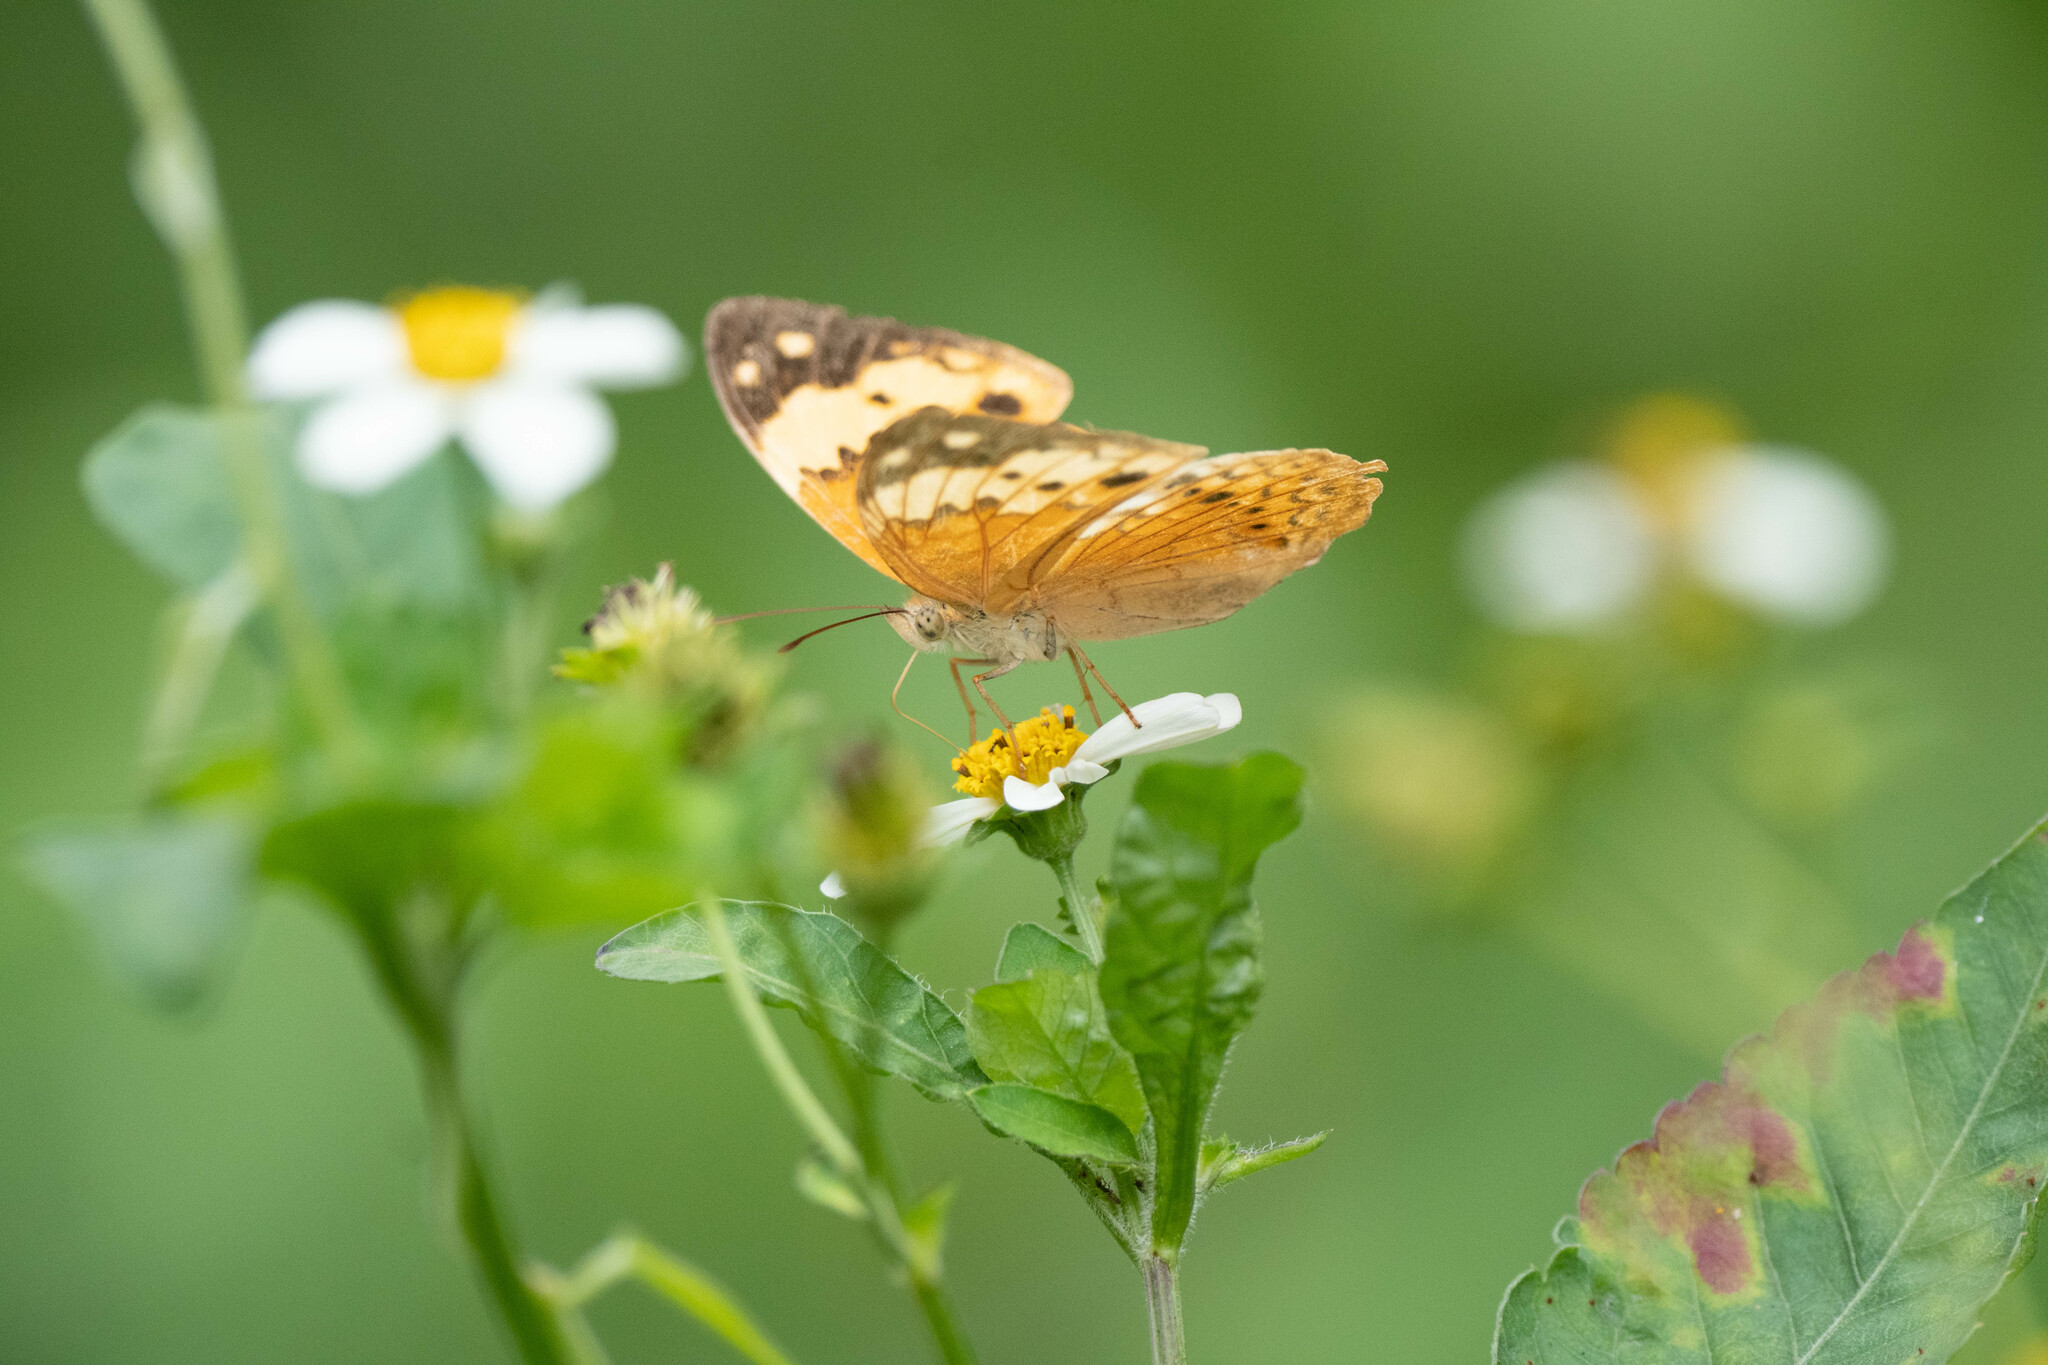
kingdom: Animalia
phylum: Arthropoda
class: Insecta
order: Lepidoptera
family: Nymphalidae
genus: Cupha
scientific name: Cupha erymanthis
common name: Rustic
